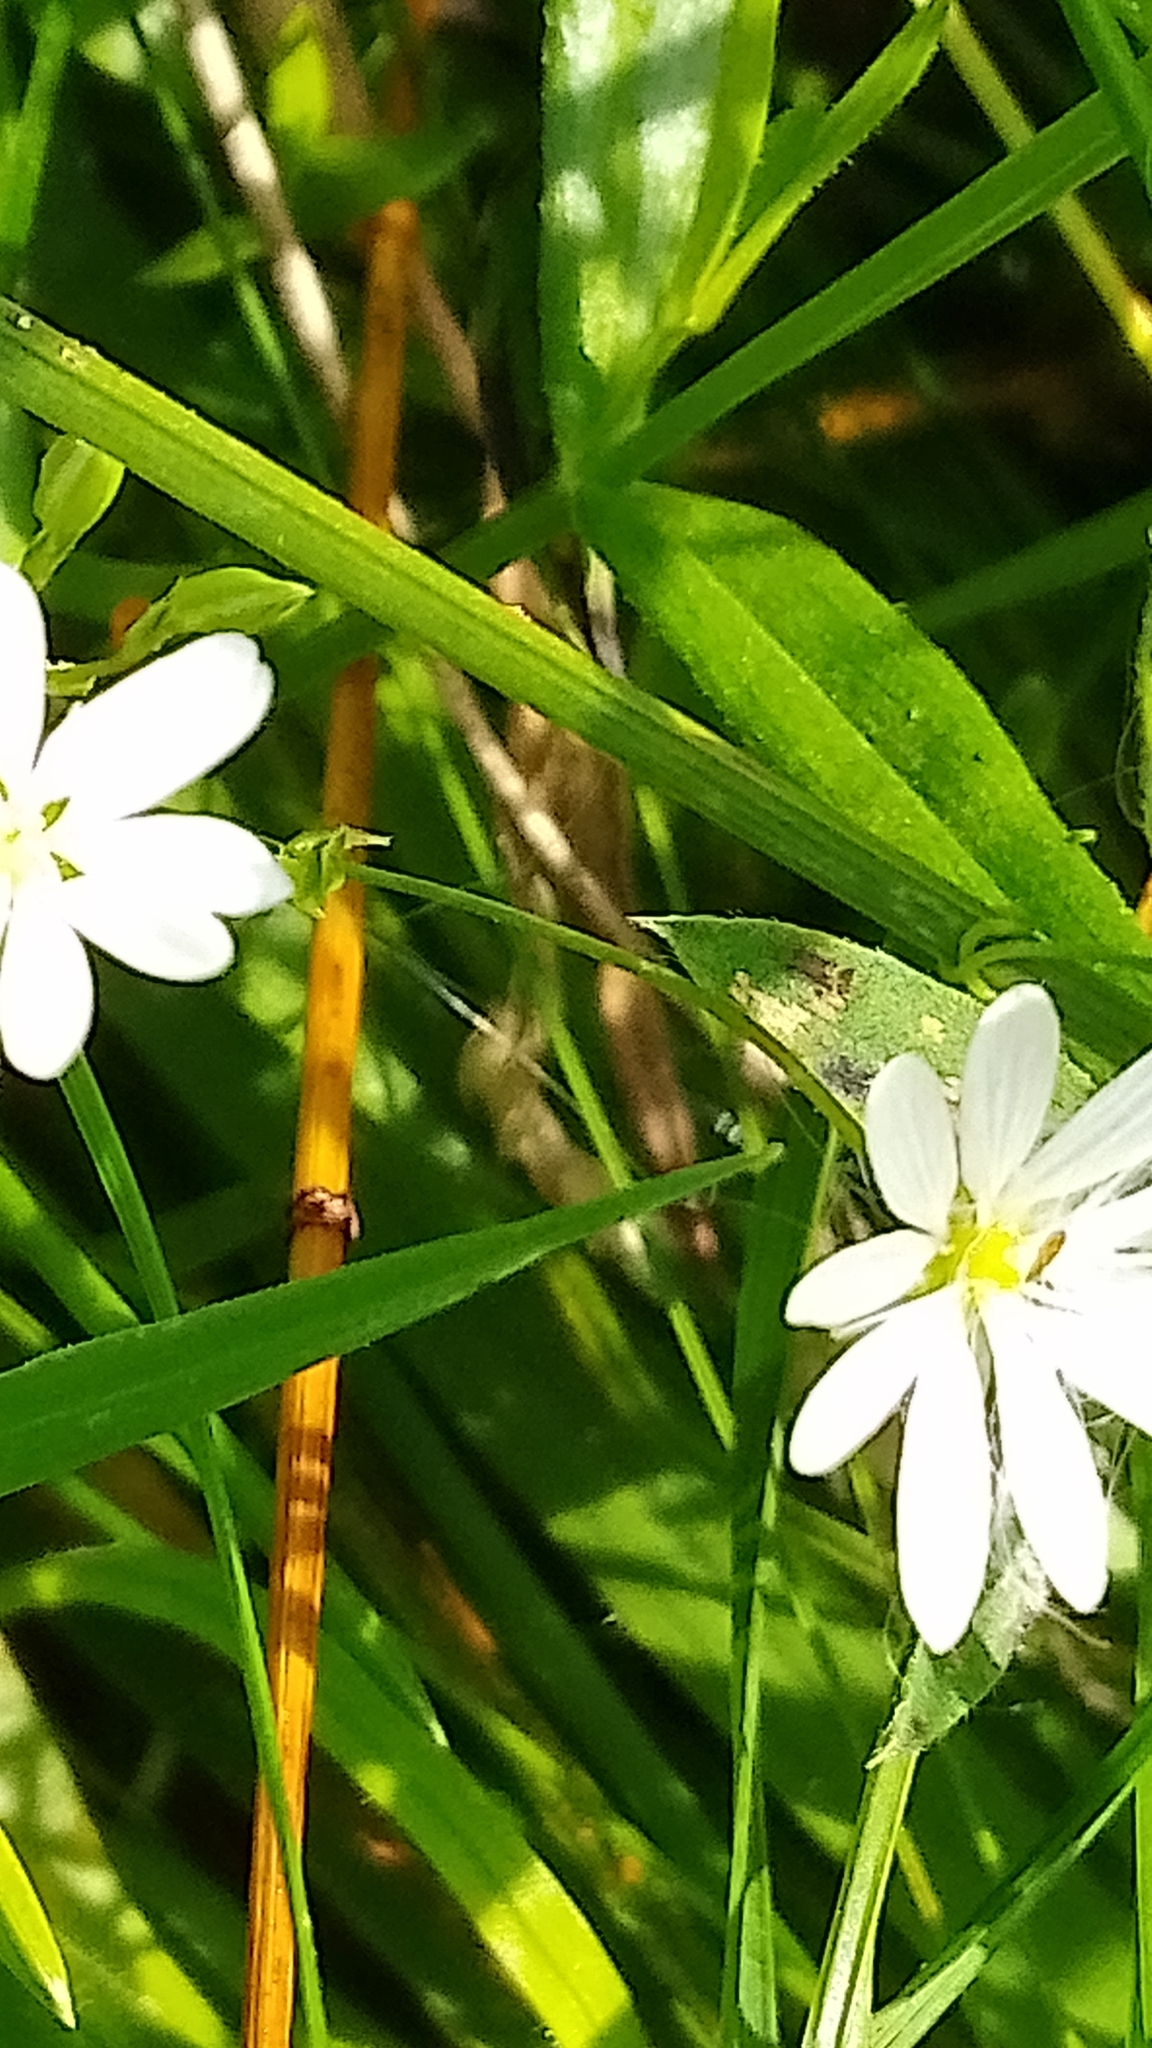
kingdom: Plantae
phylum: Tracheophyta
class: Magnoliopsida
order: Caryophyllales
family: Caryophyllaceae
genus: Stellaria
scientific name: Stellaria graminea
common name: Grass-like starwort
